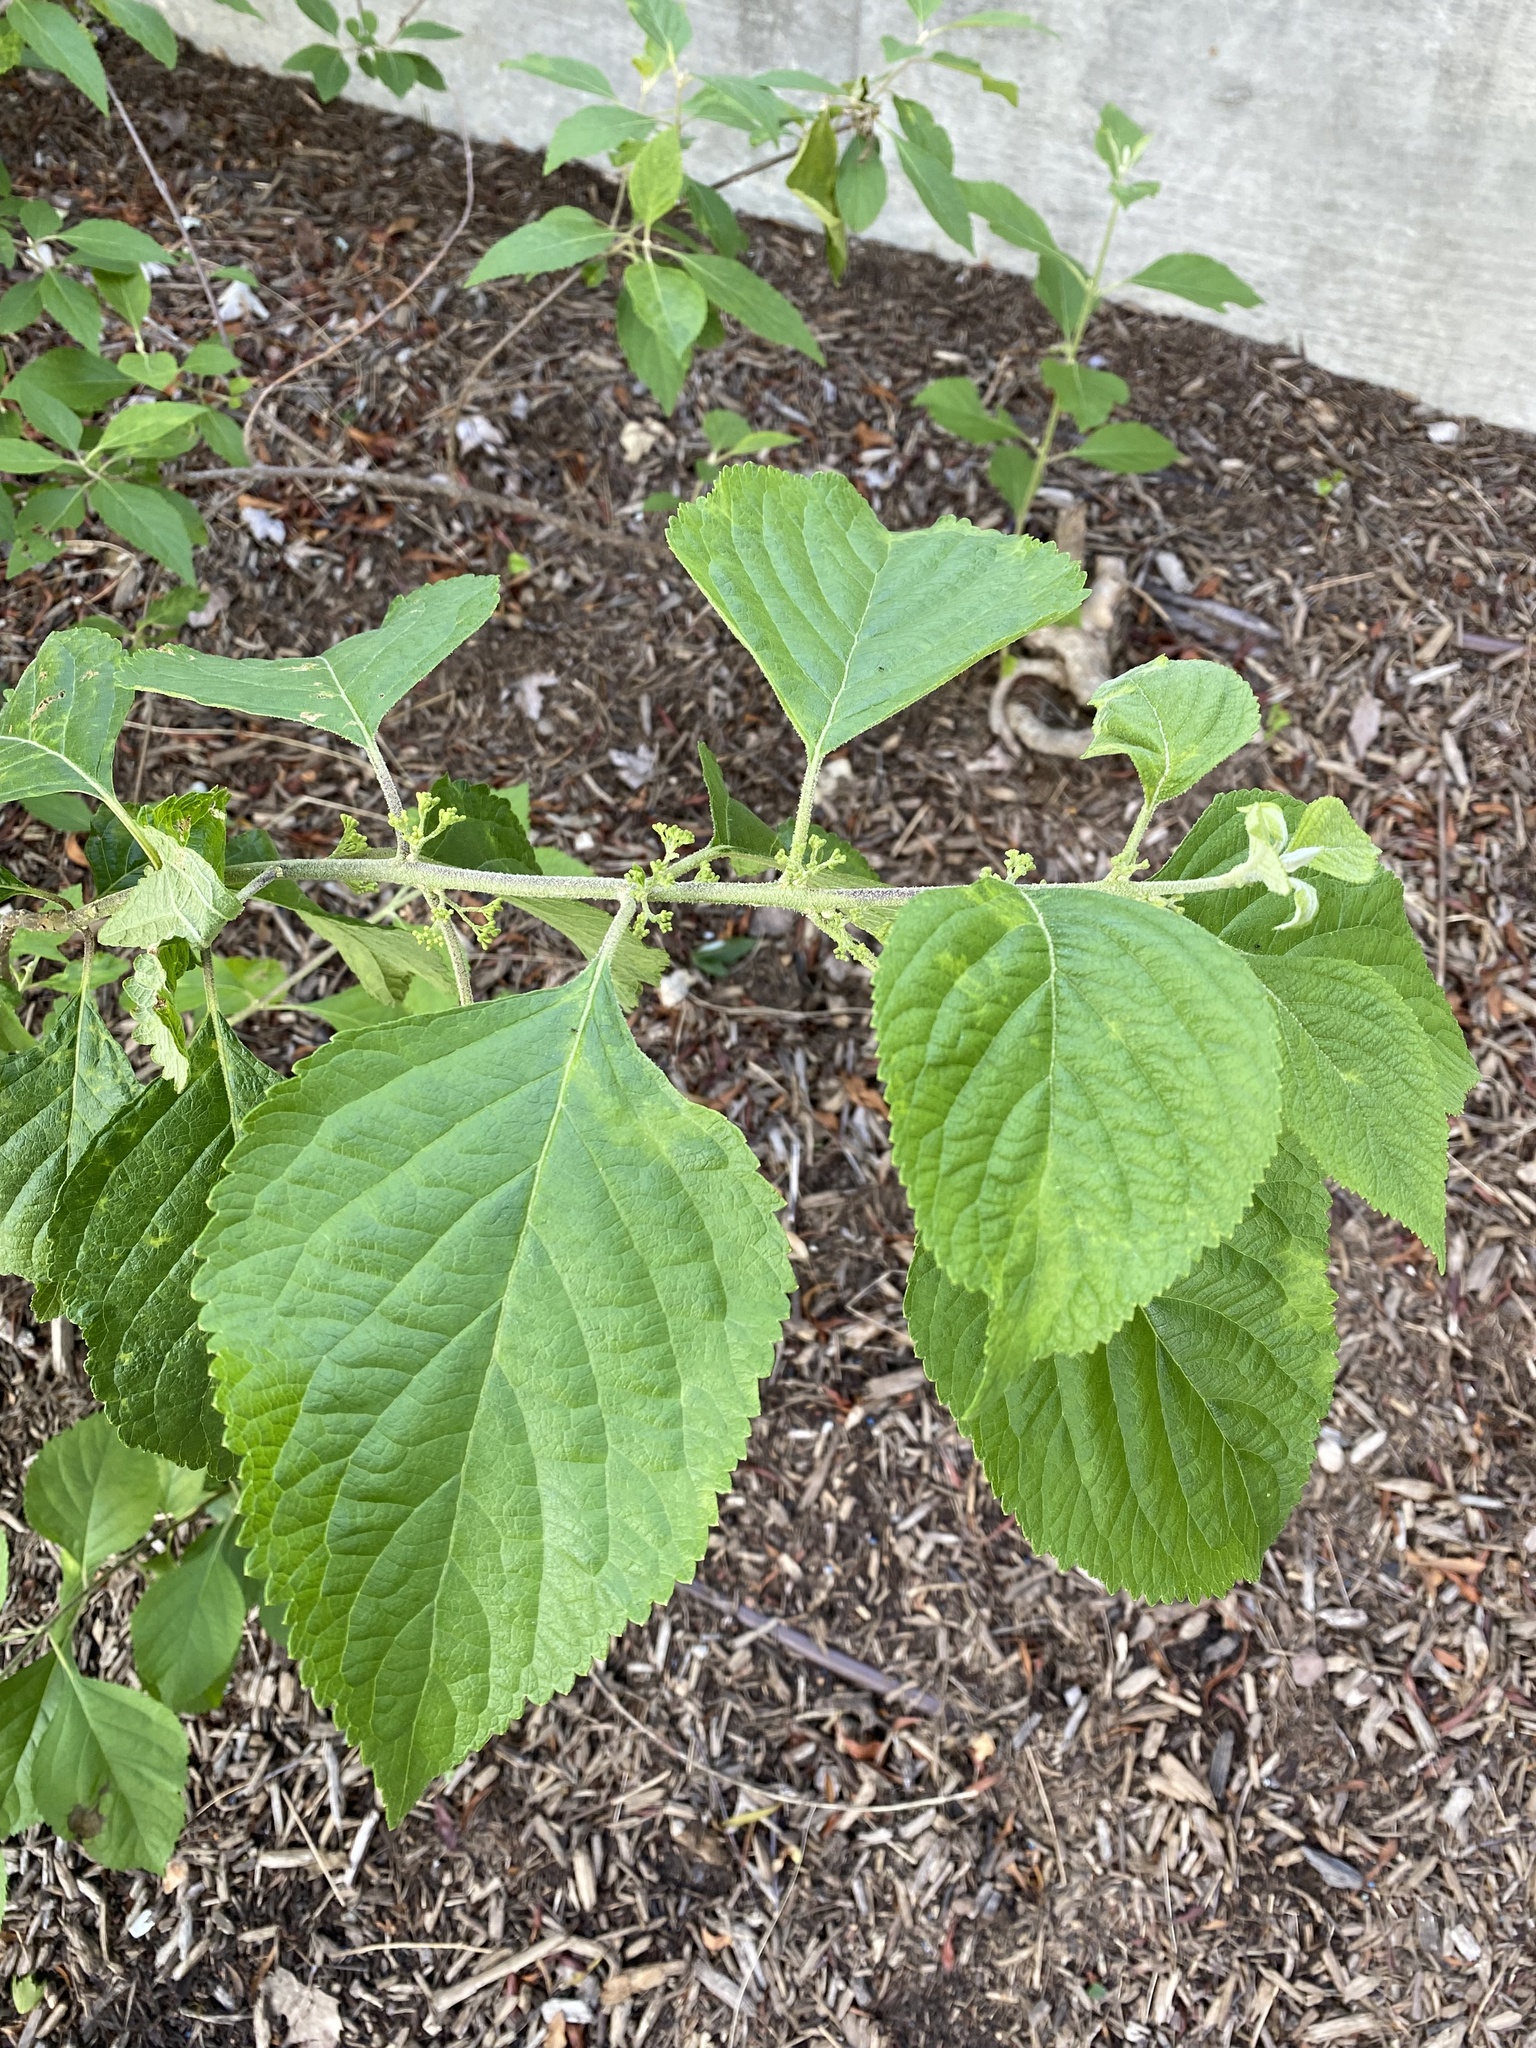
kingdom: Plantae
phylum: Tracheophyta
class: Magnoliopsida
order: Lamiales
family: Lamiaceae
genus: Callicarpa
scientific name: Callicarpa americana
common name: American beautyberry
